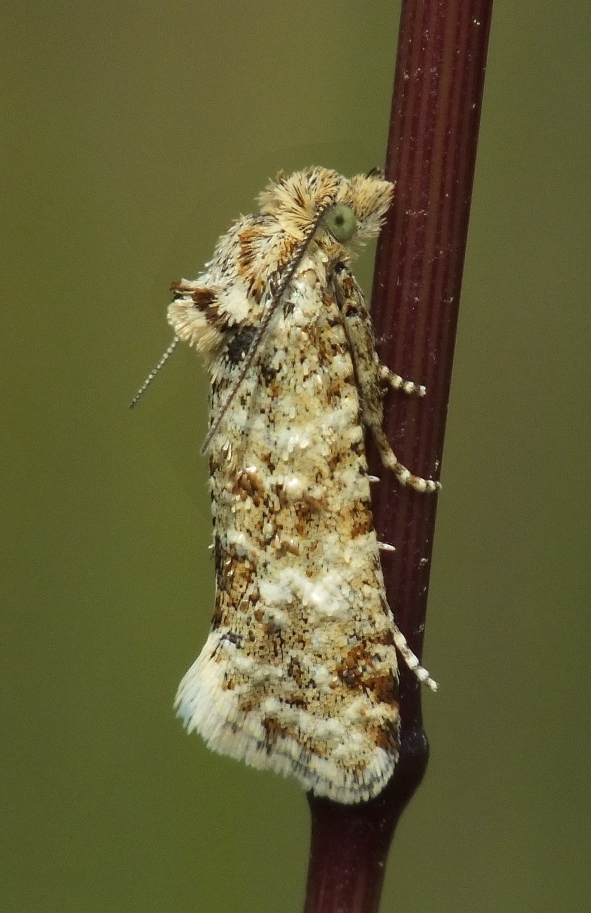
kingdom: Animalia
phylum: Arthropoda
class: Insecta
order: Lepidoptera
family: Tortricidae
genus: Aethes
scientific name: Aethes margarotana
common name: Shore conch
